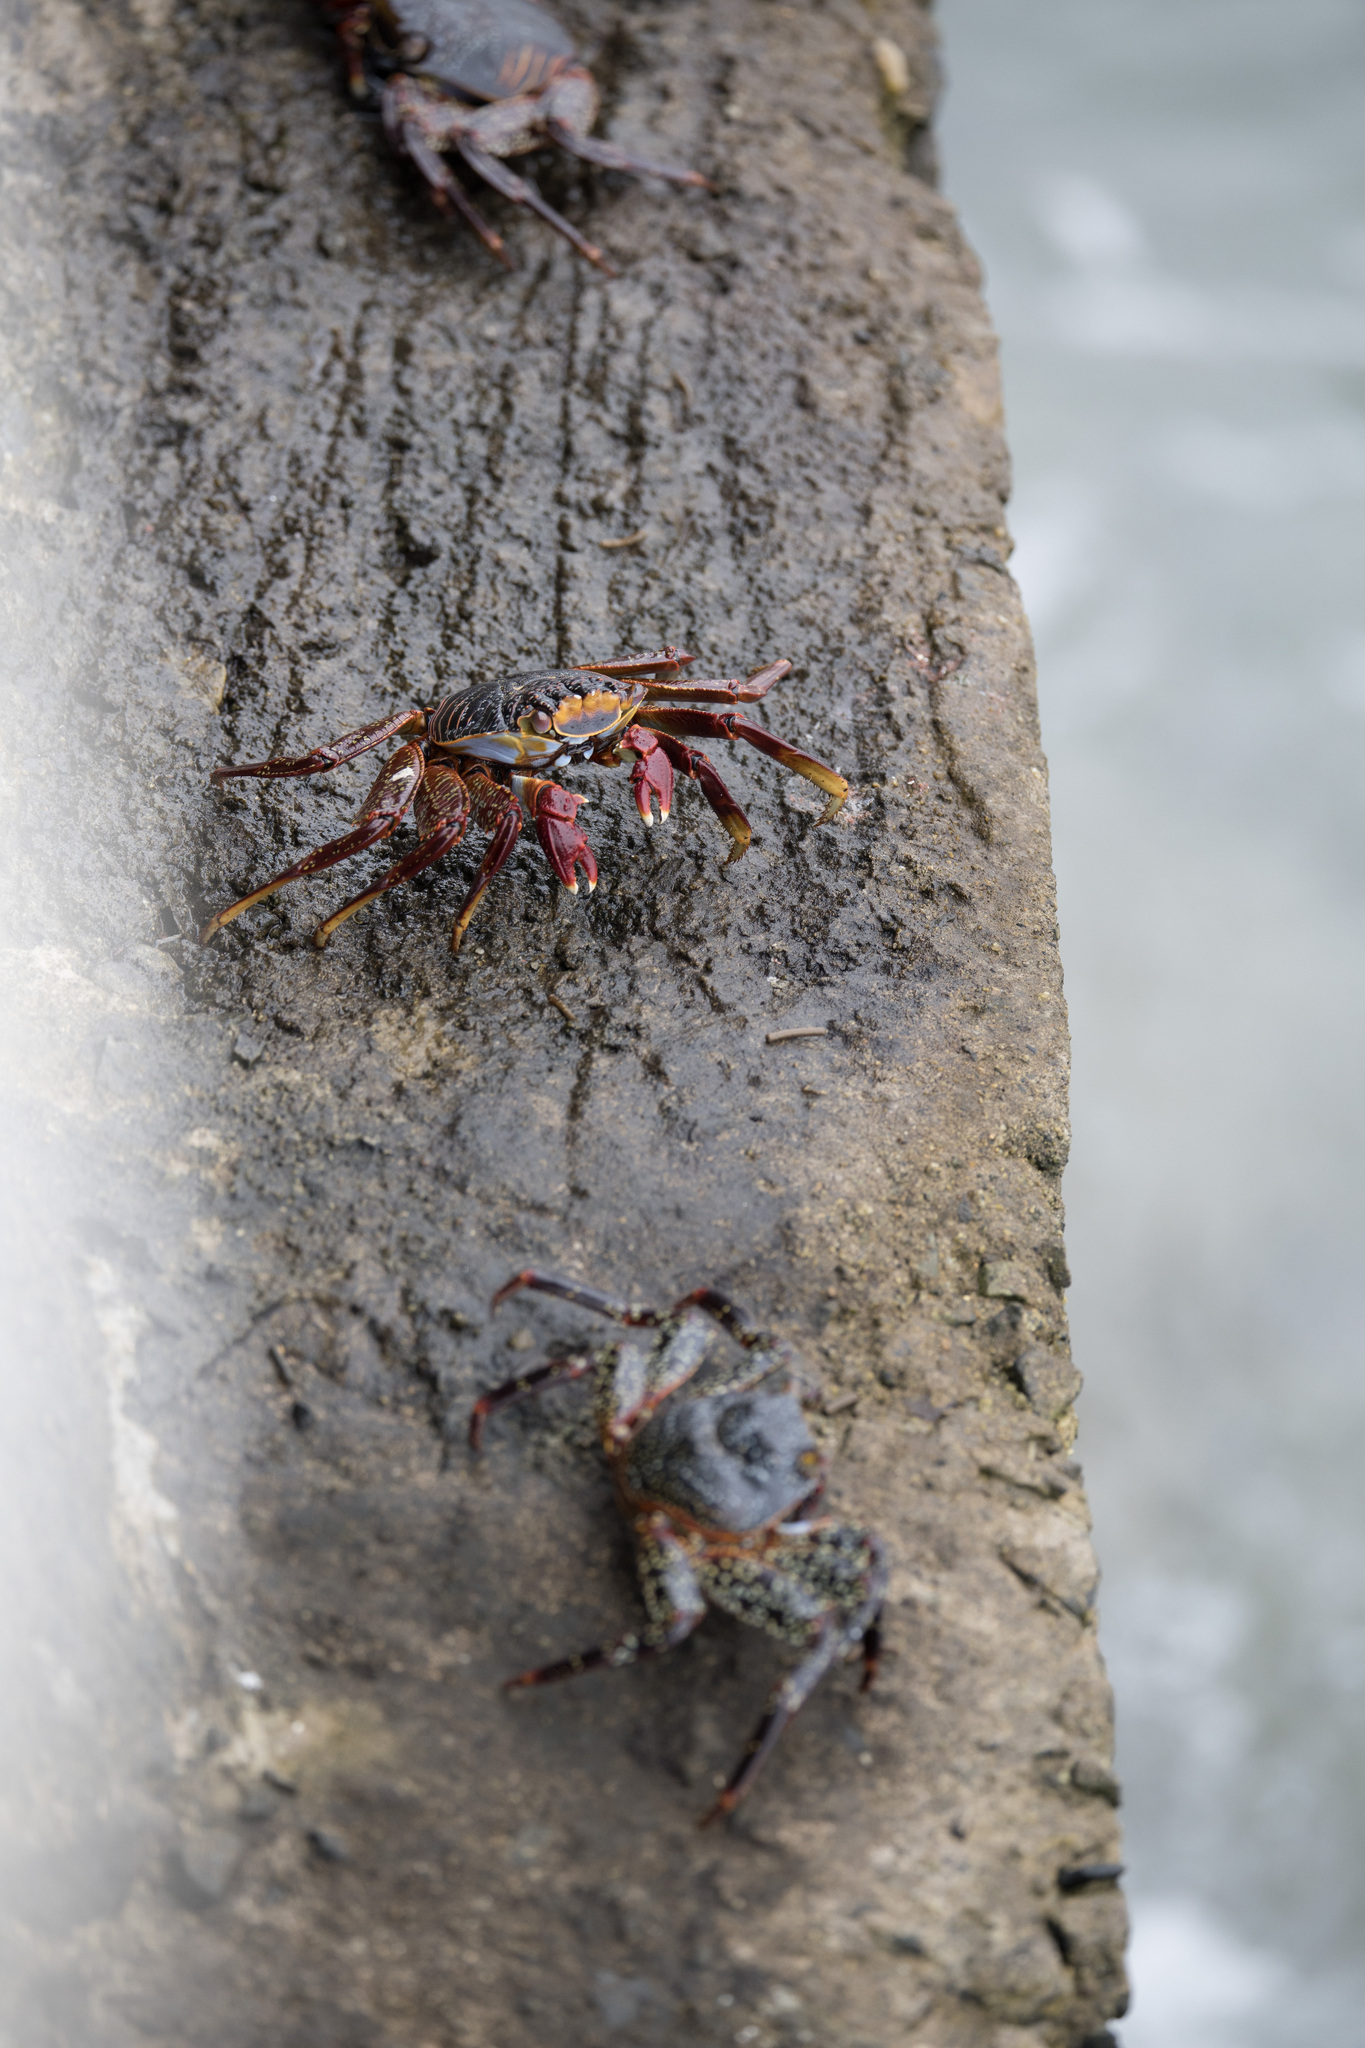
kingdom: Animalia
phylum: Arthropoda
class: Malacostraca
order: Decapoda
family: Grapsidae
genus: Grapsus
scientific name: Grapsus grapsus
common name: Sally lightfoot
